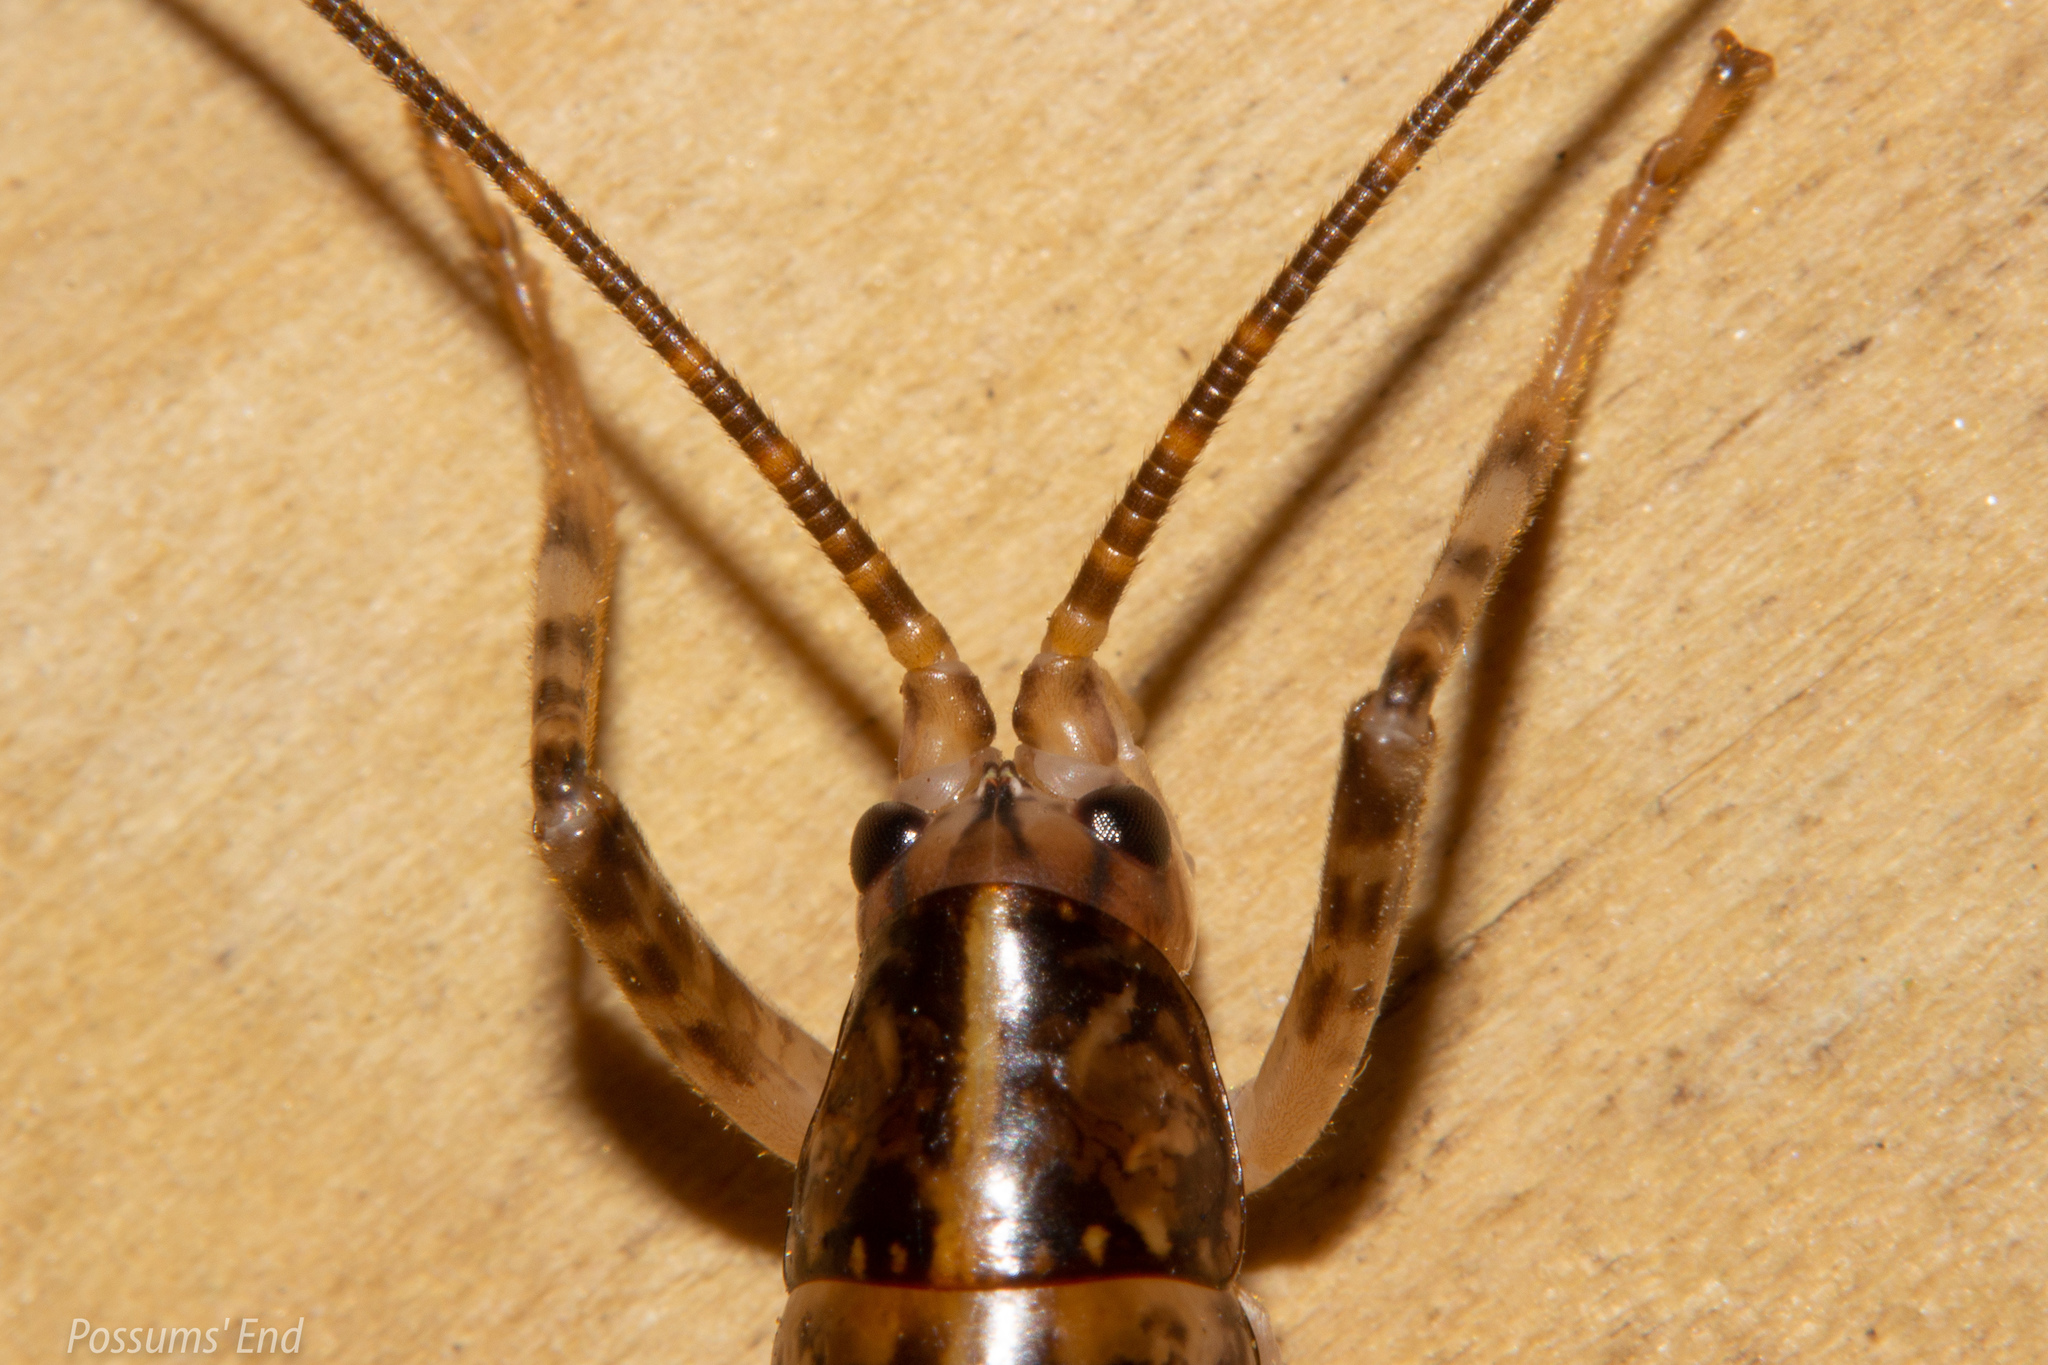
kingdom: Animalia
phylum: Arthropoda
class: Insecta
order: Orthoptera
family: Rhaphidophoridae
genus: Talitropsis
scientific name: Talitropsis sedilloti
